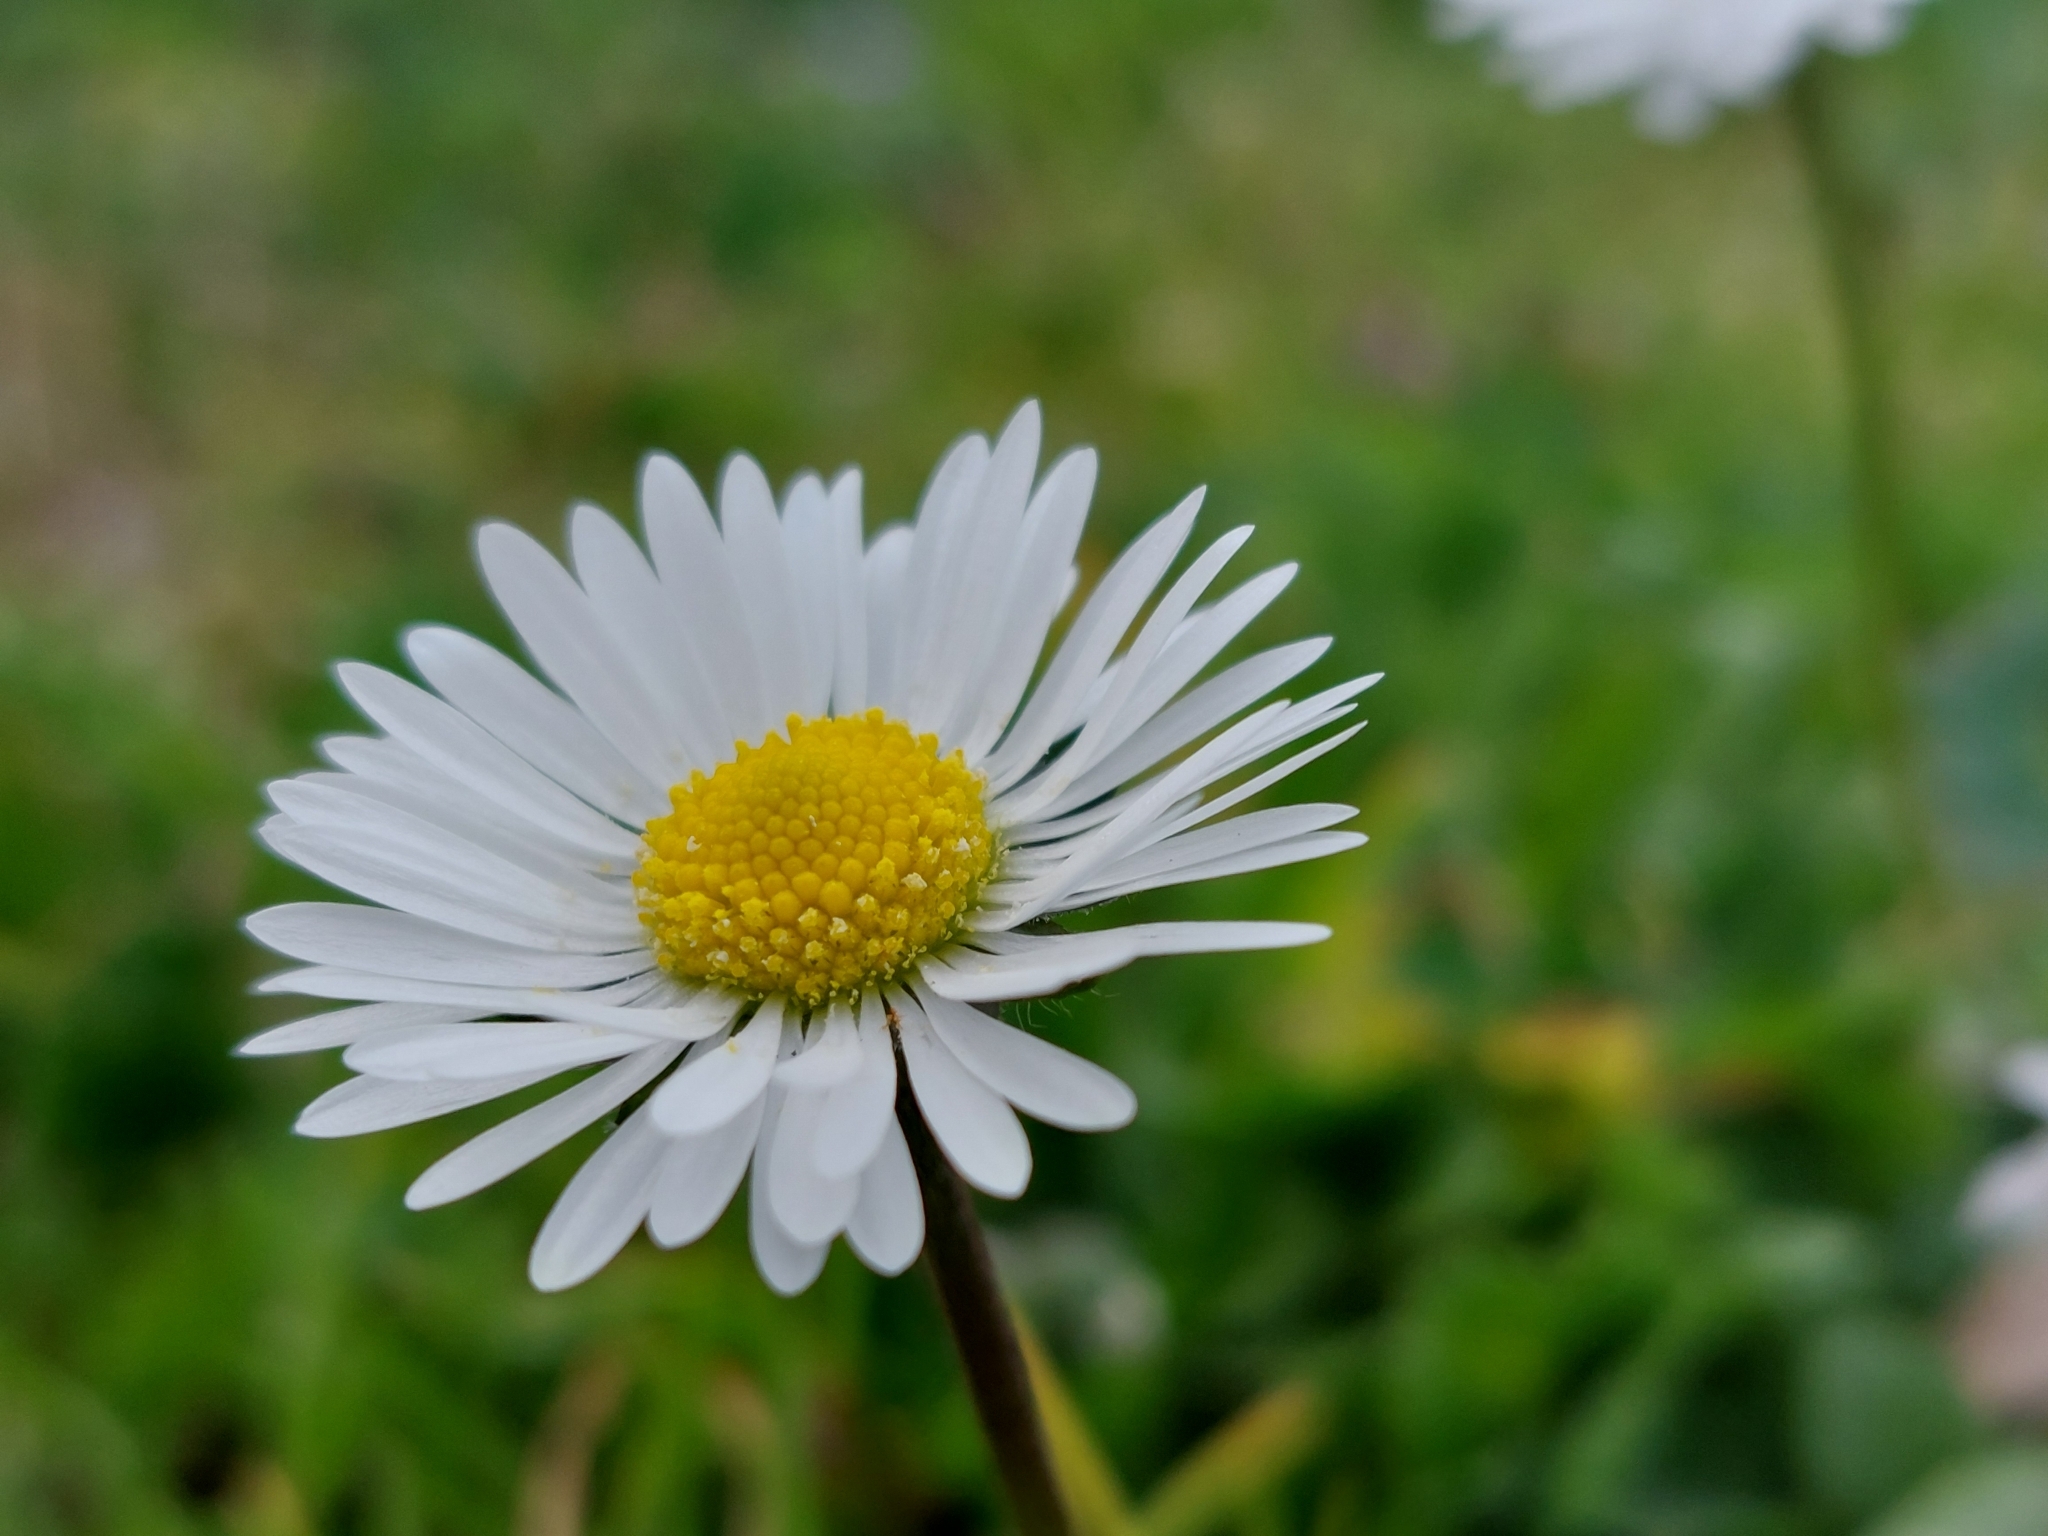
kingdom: Plantae
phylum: Tracheophyta
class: Magnoliopsida
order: Asterales
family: Asteraceae
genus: Bellis
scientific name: Bellis perennis
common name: Lawndaisy
